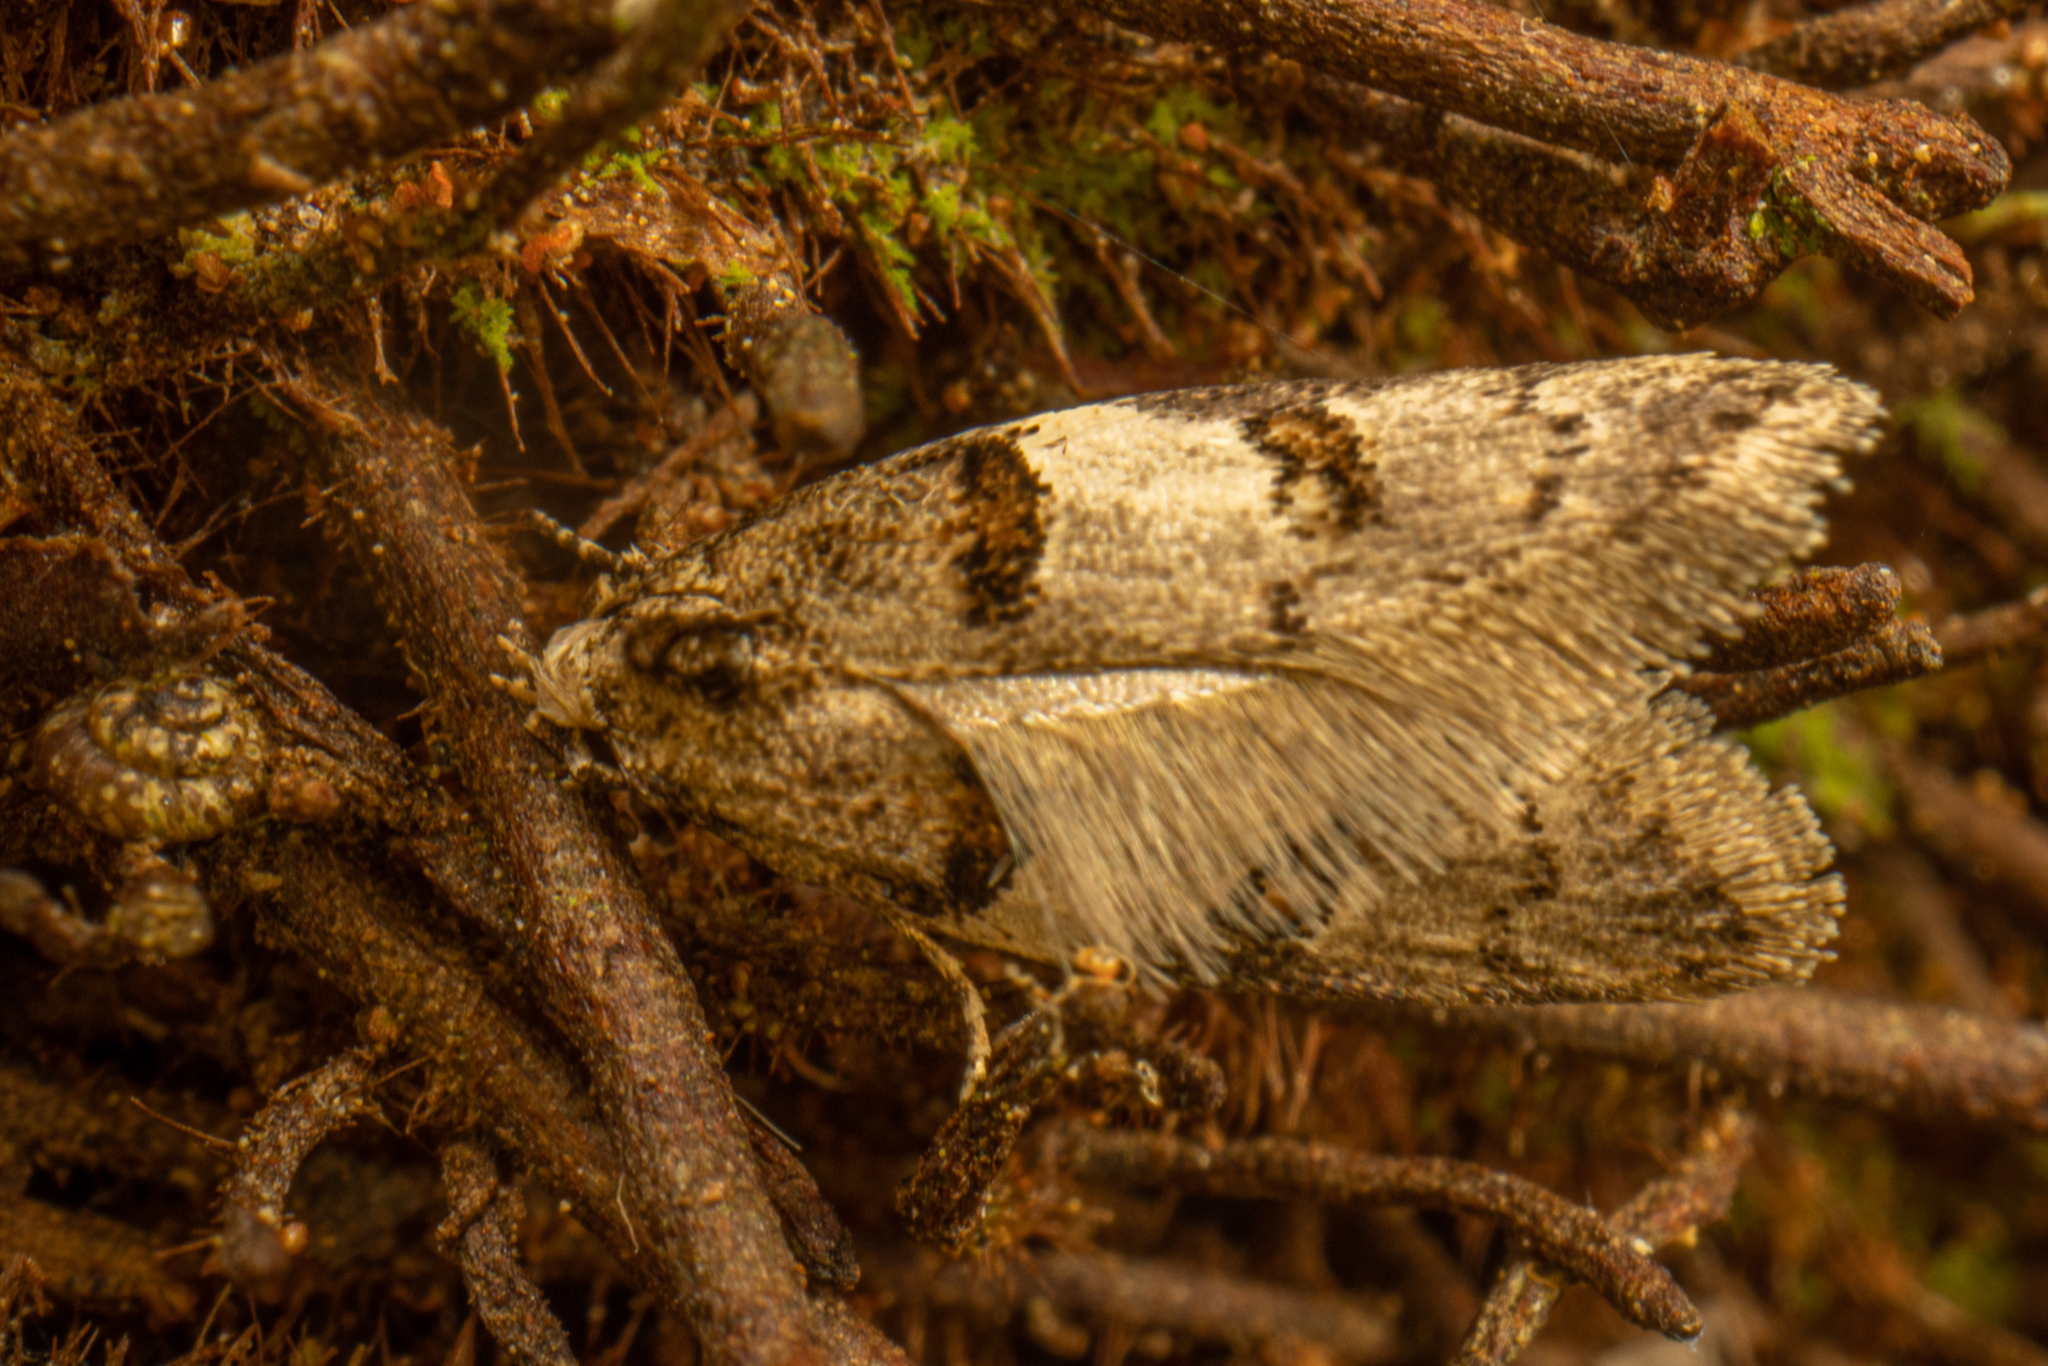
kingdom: Animalia
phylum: Arthropoda
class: Insecta
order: Lepidoptera
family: Oecophoridae
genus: Trachypepla
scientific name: Trachypepla contritella
